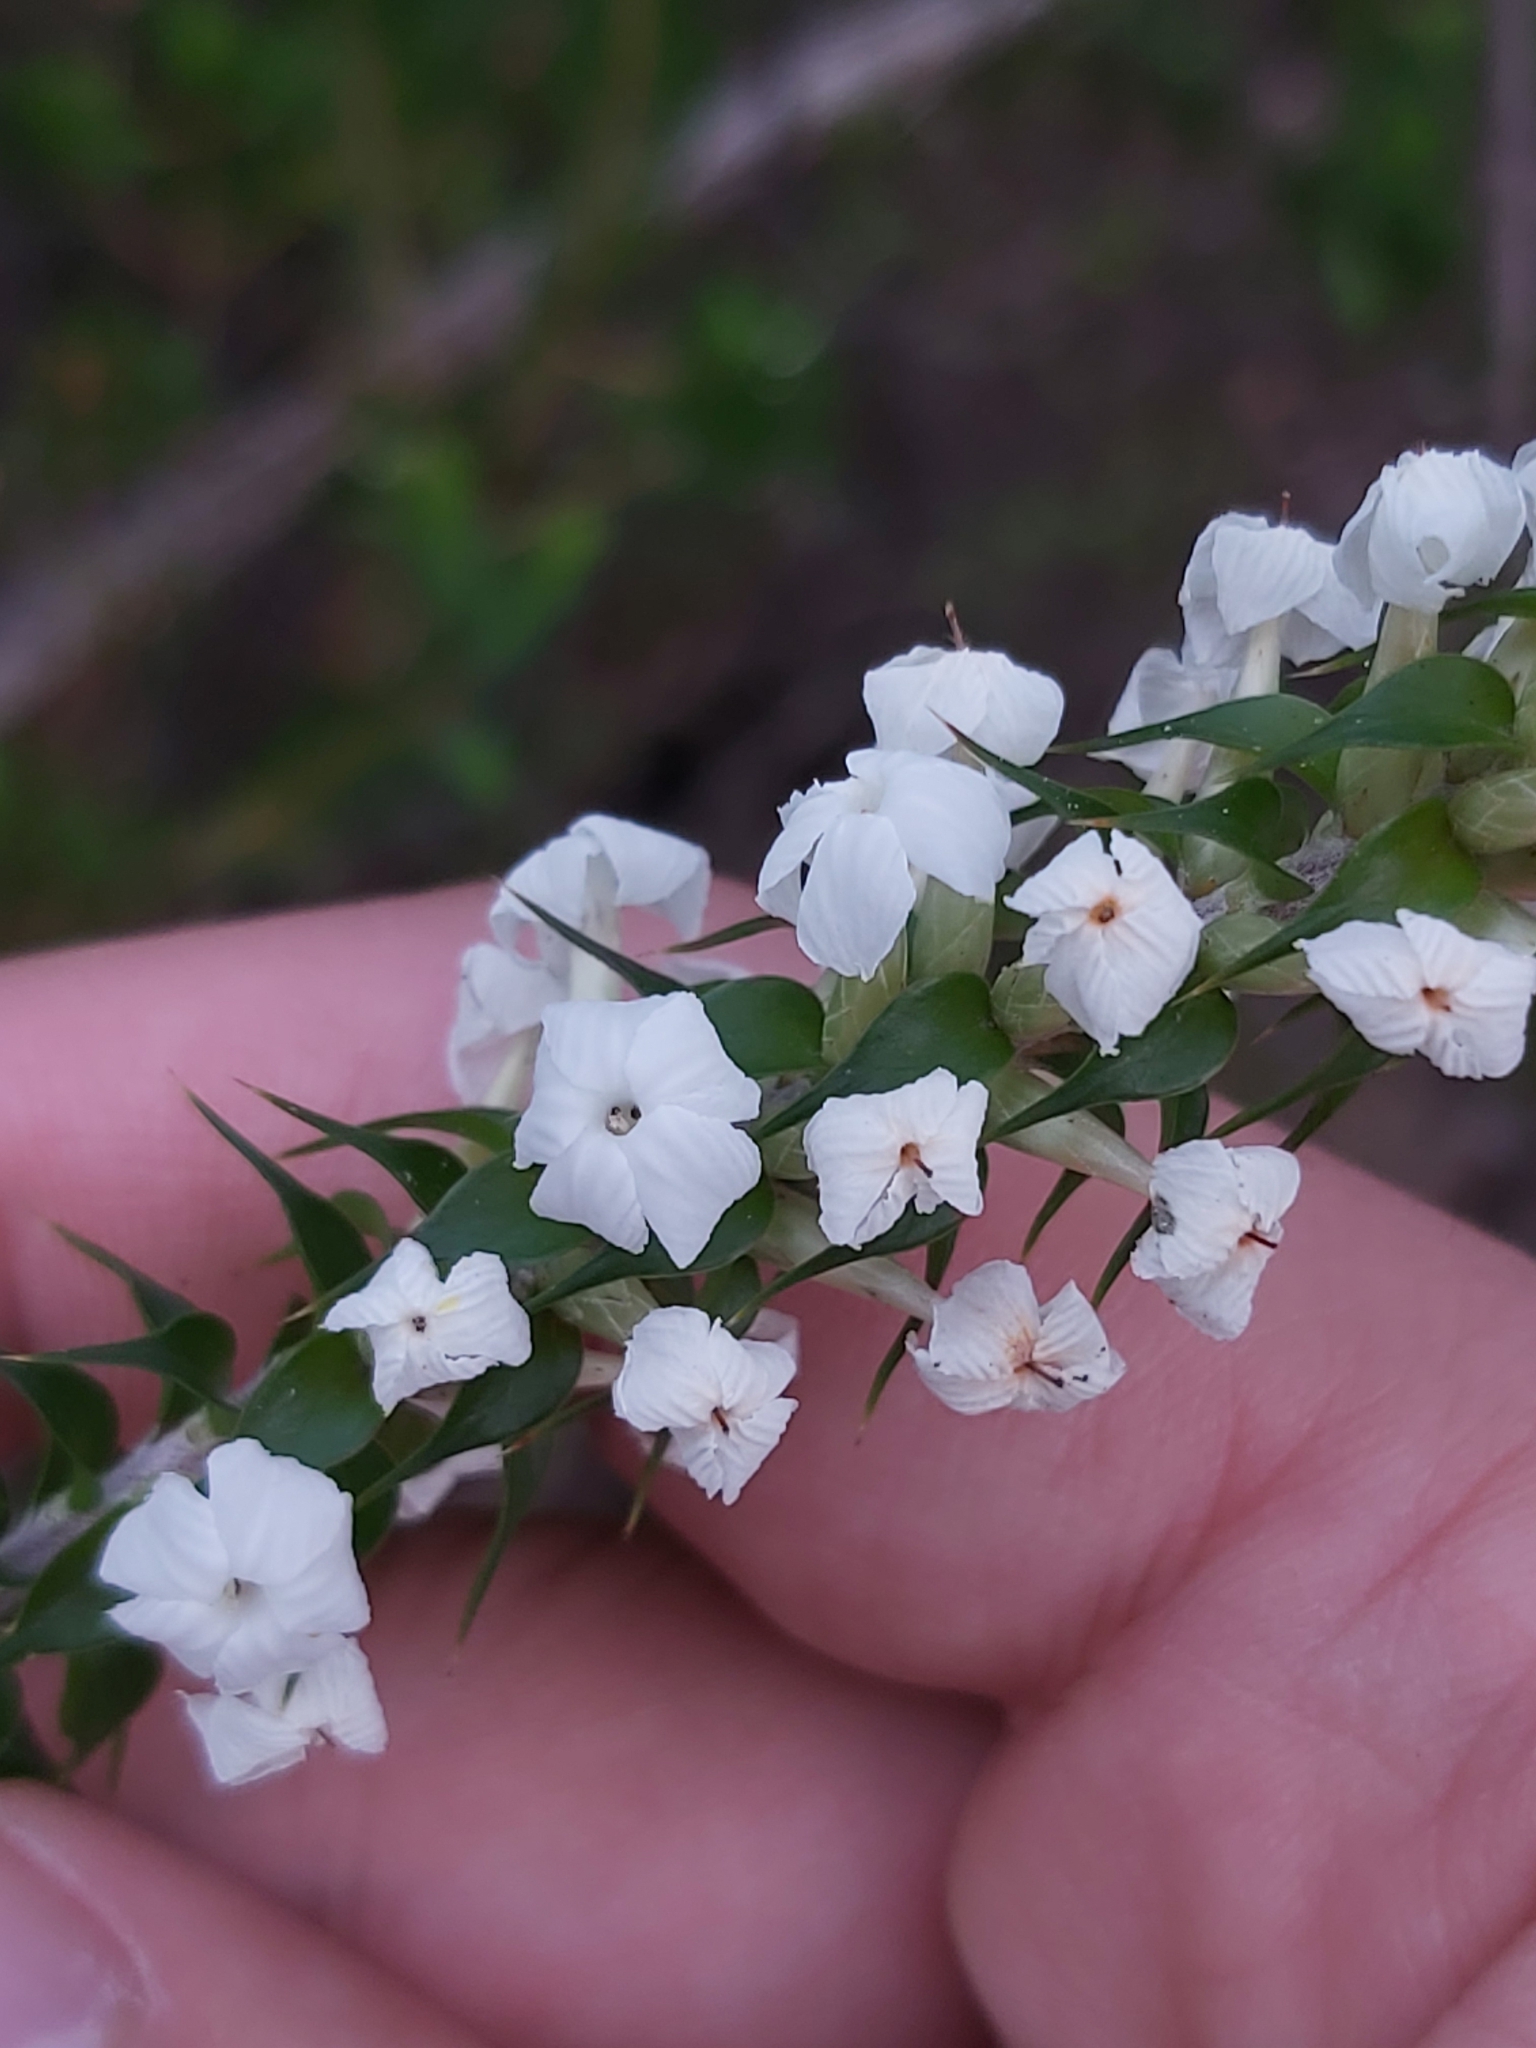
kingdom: Plantae
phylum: Tracheophyta
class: Magnoliopsida
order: Ericales
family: Ericaceae
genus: Woollsia
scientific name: Woollsia pungens
